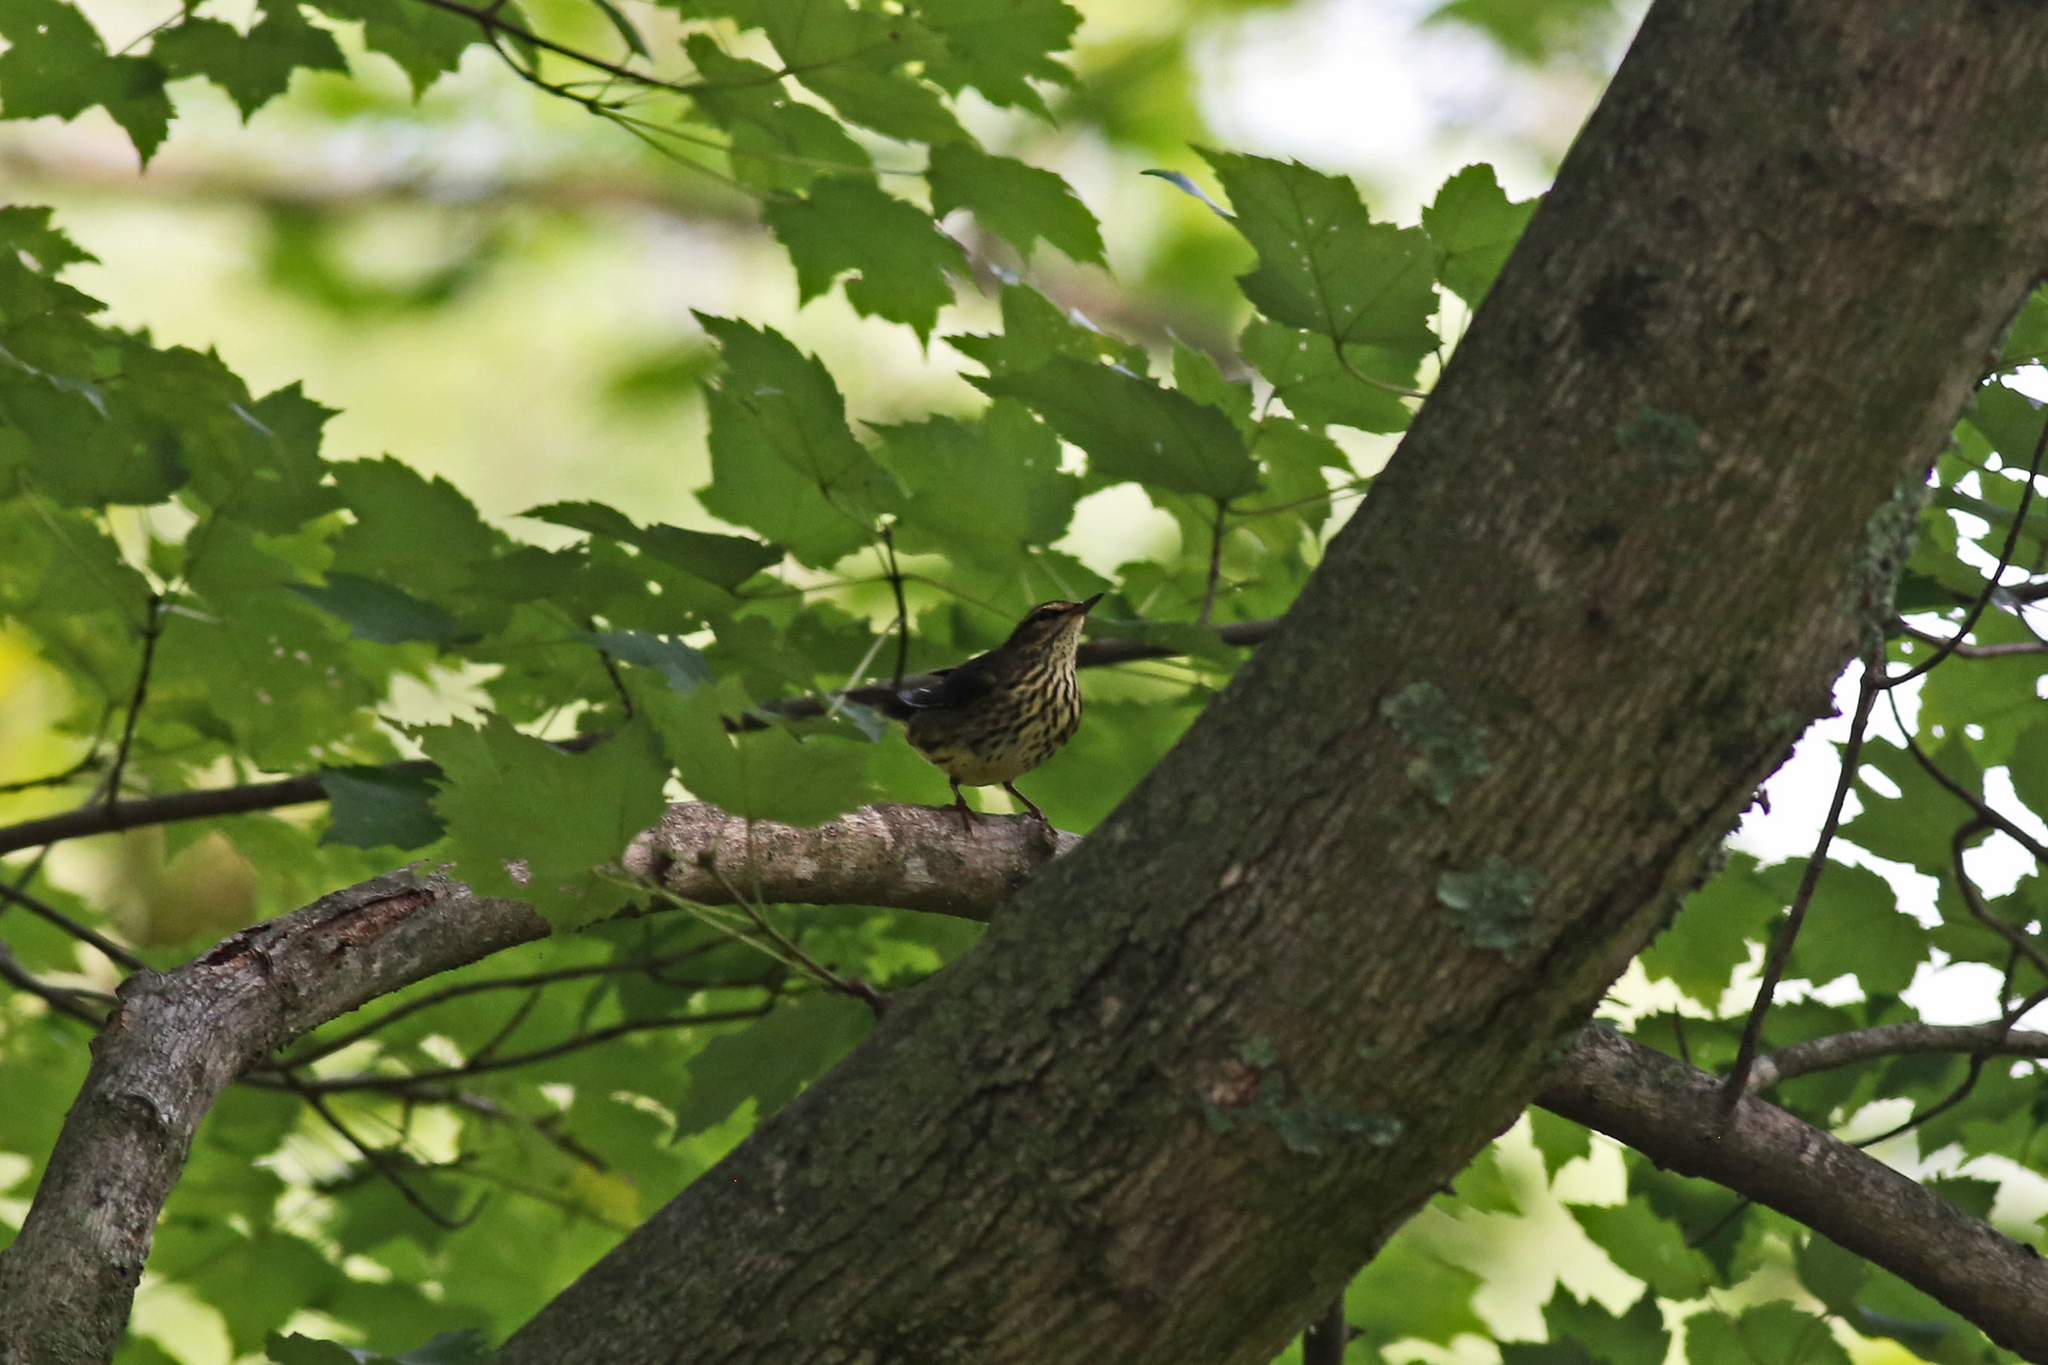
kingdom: Animalia
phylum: Chordata
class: Aves
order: Passeriformes
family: Parulidae
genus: Parkesia
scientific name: Parkesia noveboracensis
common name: Northern waterthrush
